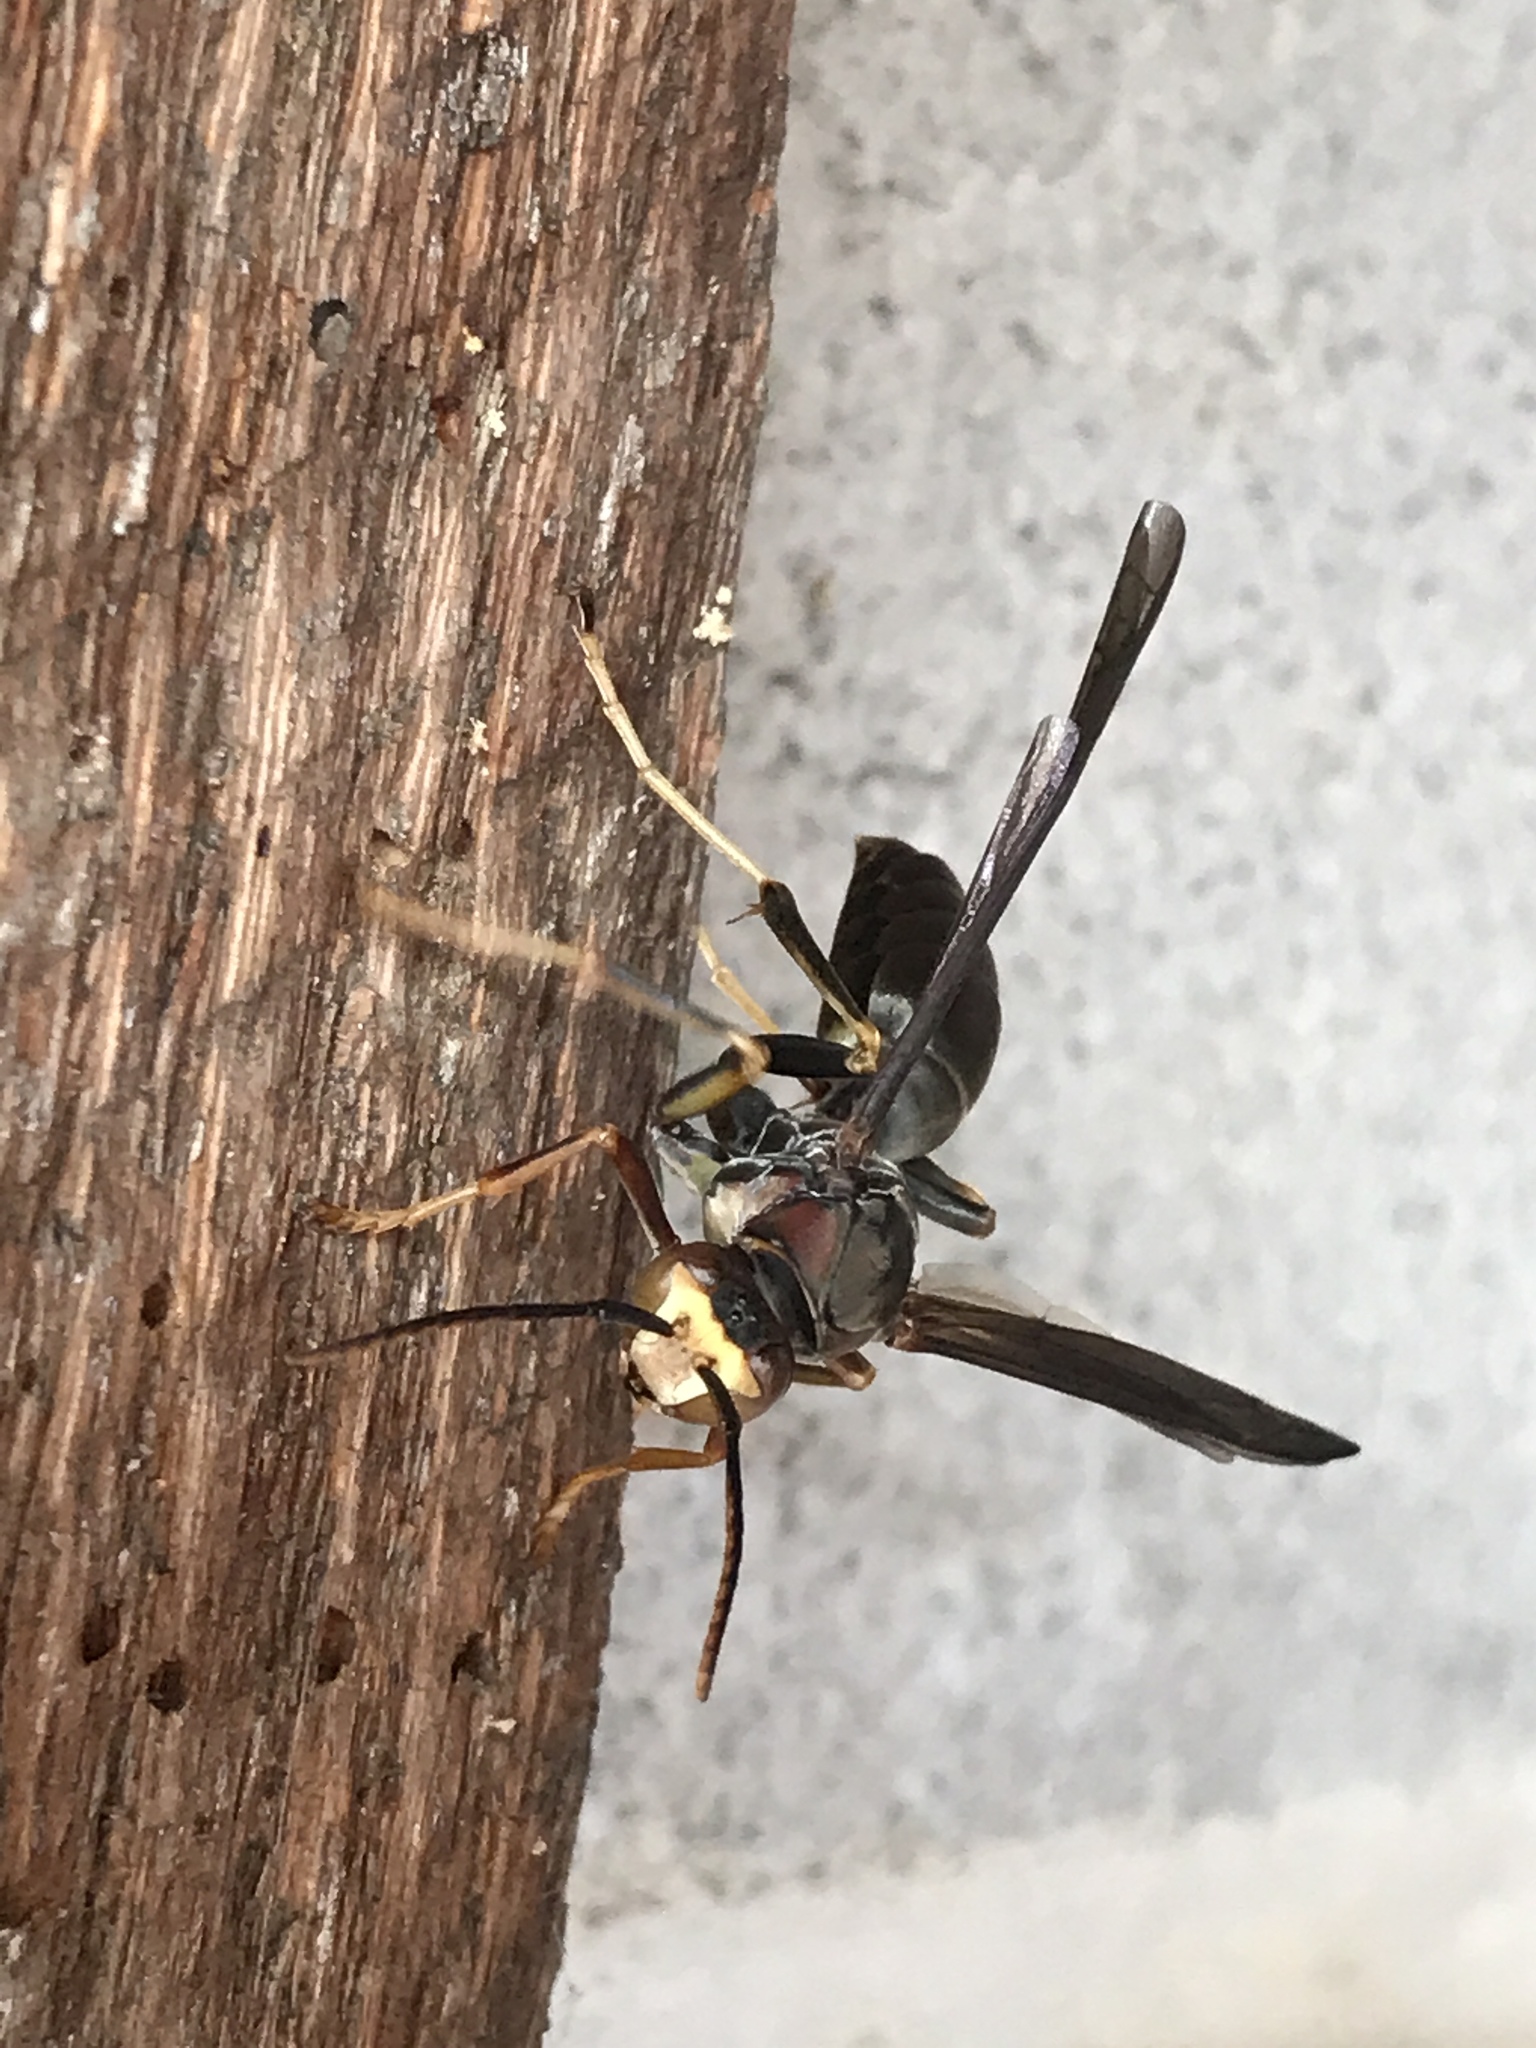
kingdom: Animalia
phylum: Arthropoda
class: Insecta
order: Hymenoptera
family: Eumenidae
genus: Polistes
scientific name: Polistes metricus
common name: Metric paper wasp
